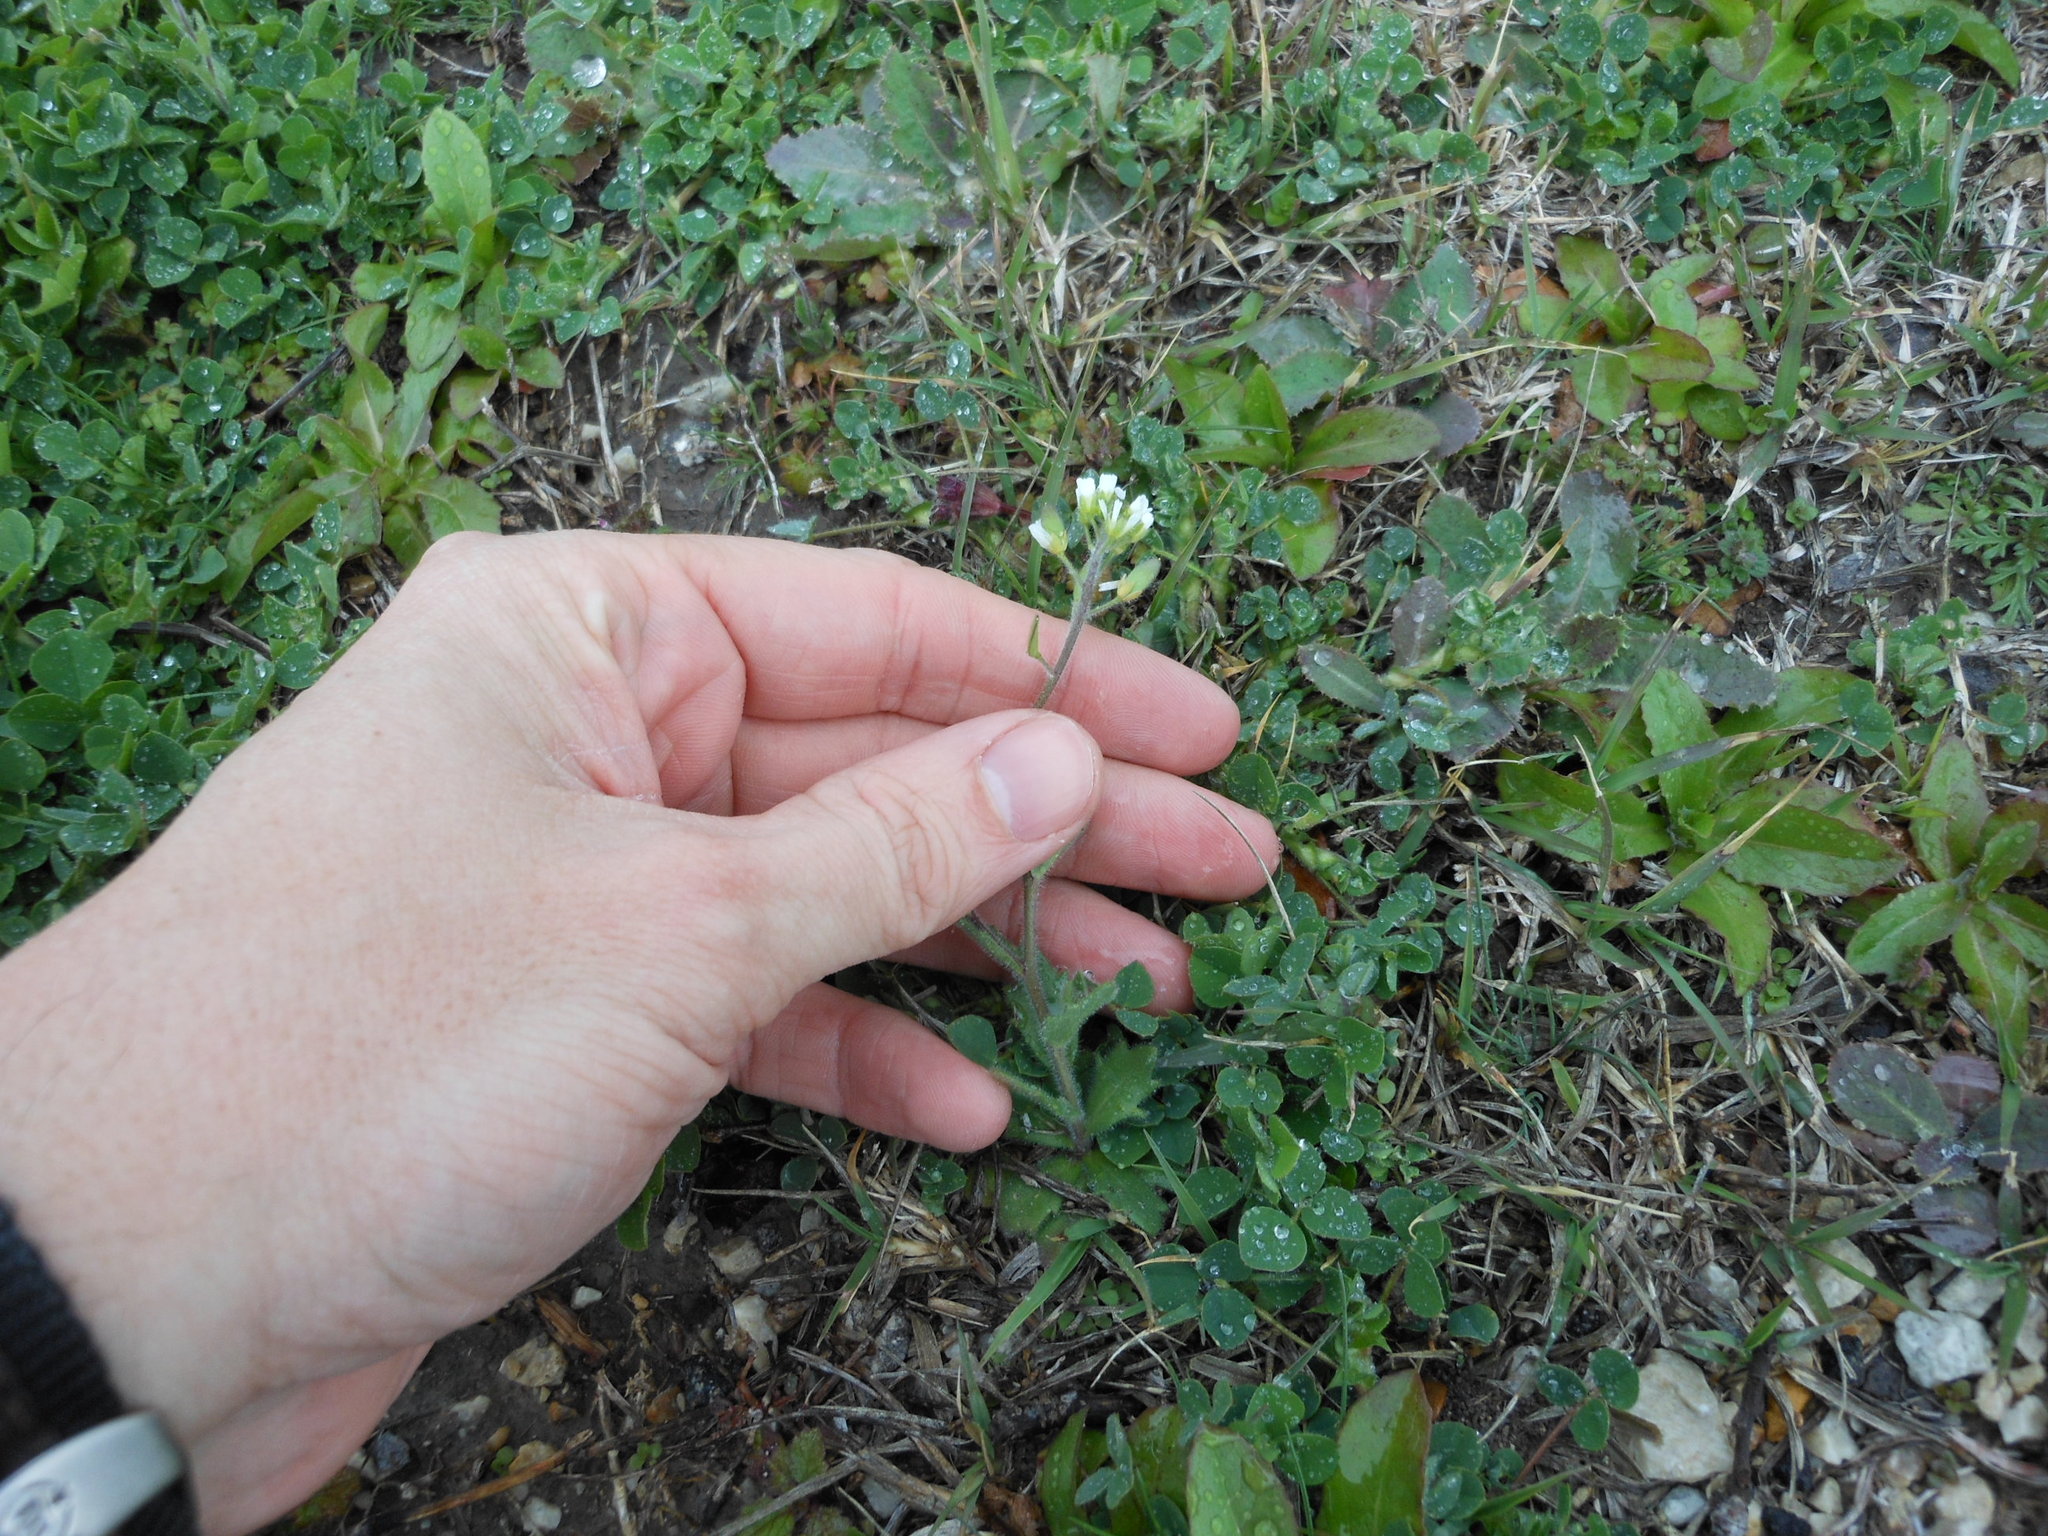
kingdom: Plantae
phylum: Tracheophyta
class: Magnoliopsida
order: Brassicales
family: Brassicaceae
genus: Tomostima
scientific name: Tomostima platycarpa
